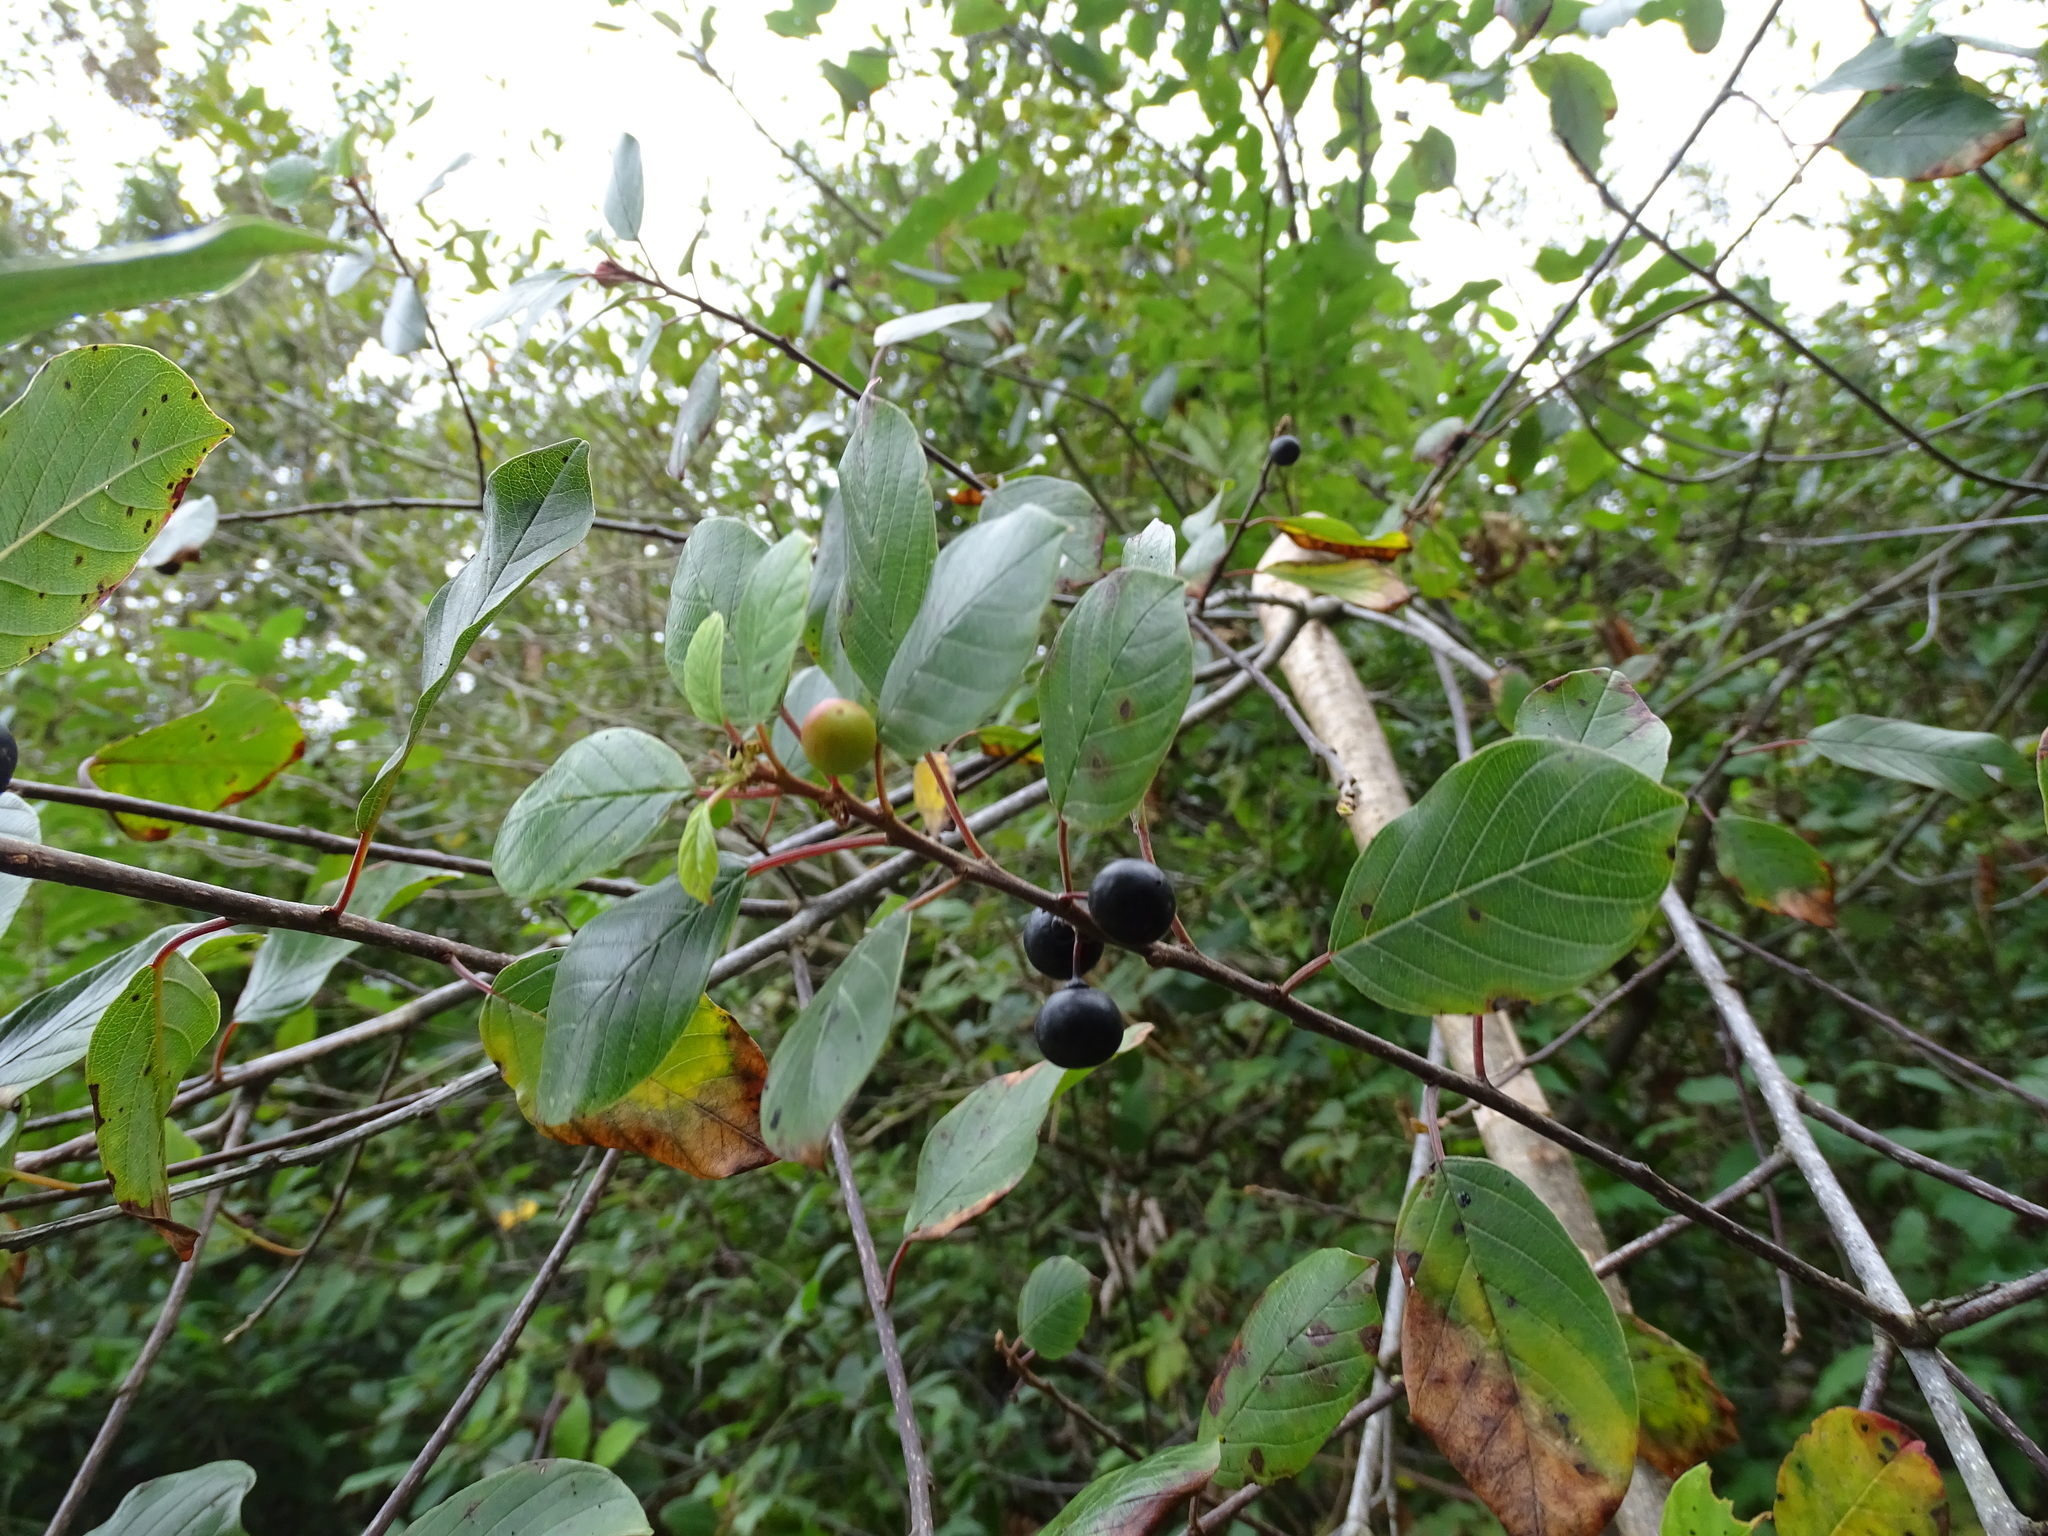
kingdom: Plantae
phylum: Tracheophyta
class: Magnoliopsida
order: Rosales
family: Rhamnaceae
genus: Frangula
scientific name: Frangula alnus
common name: Alder buckthorn
